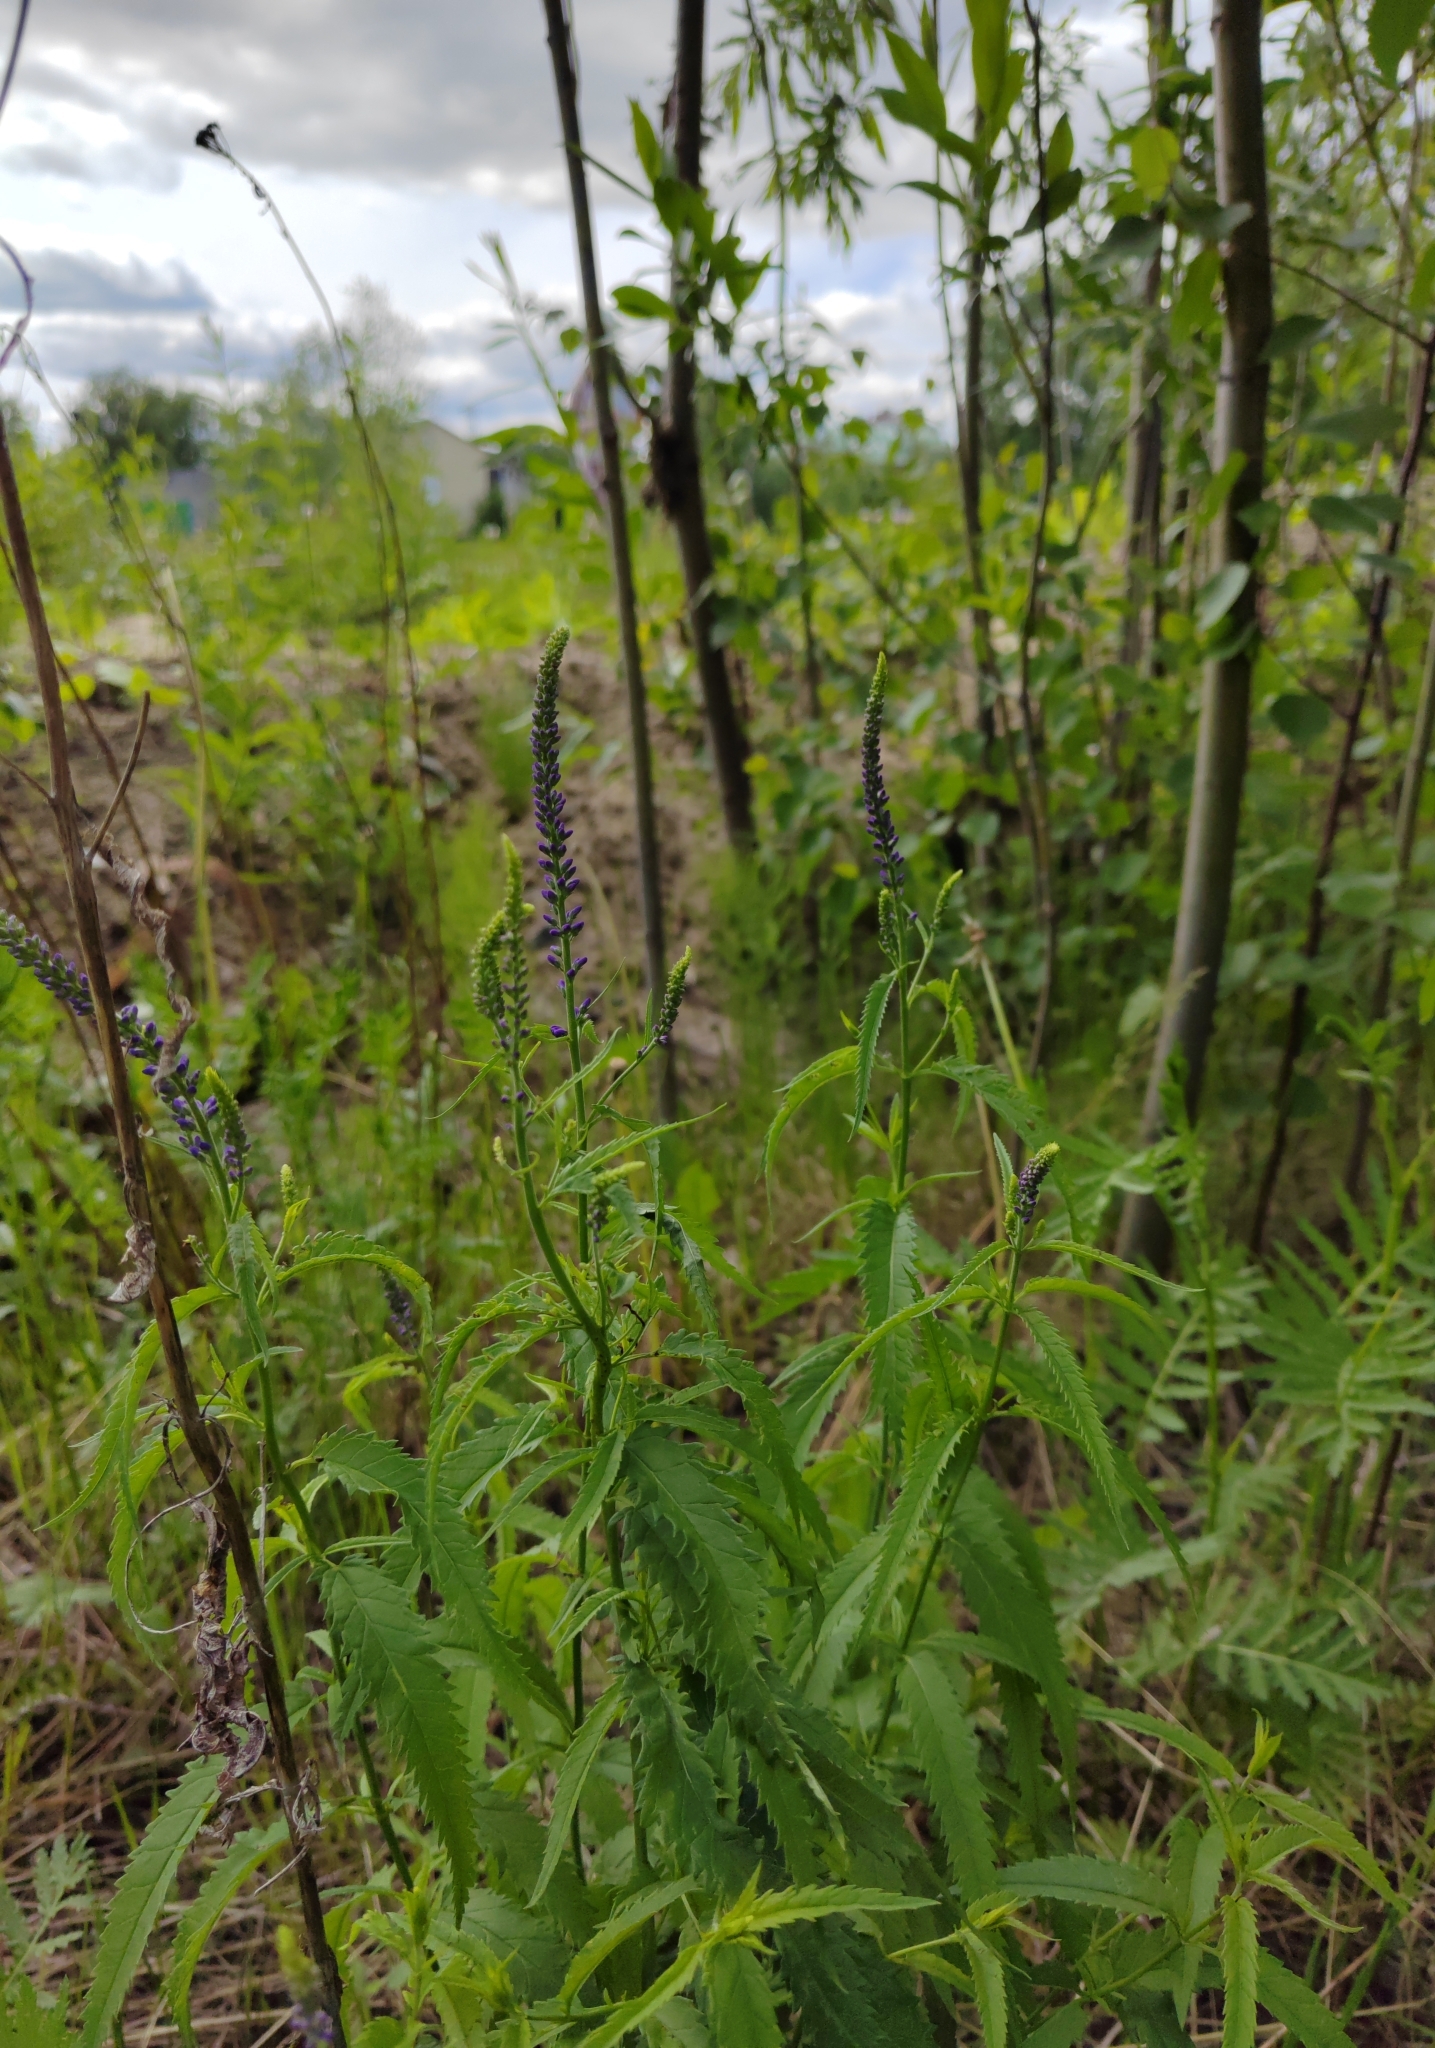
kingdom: Plantae
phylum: Tracheophyta
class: Magnoliopsida
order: Lamiales
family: Plantaginaceae
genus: Veronica
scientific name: Veronica longifolia
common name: Garden speedwell
